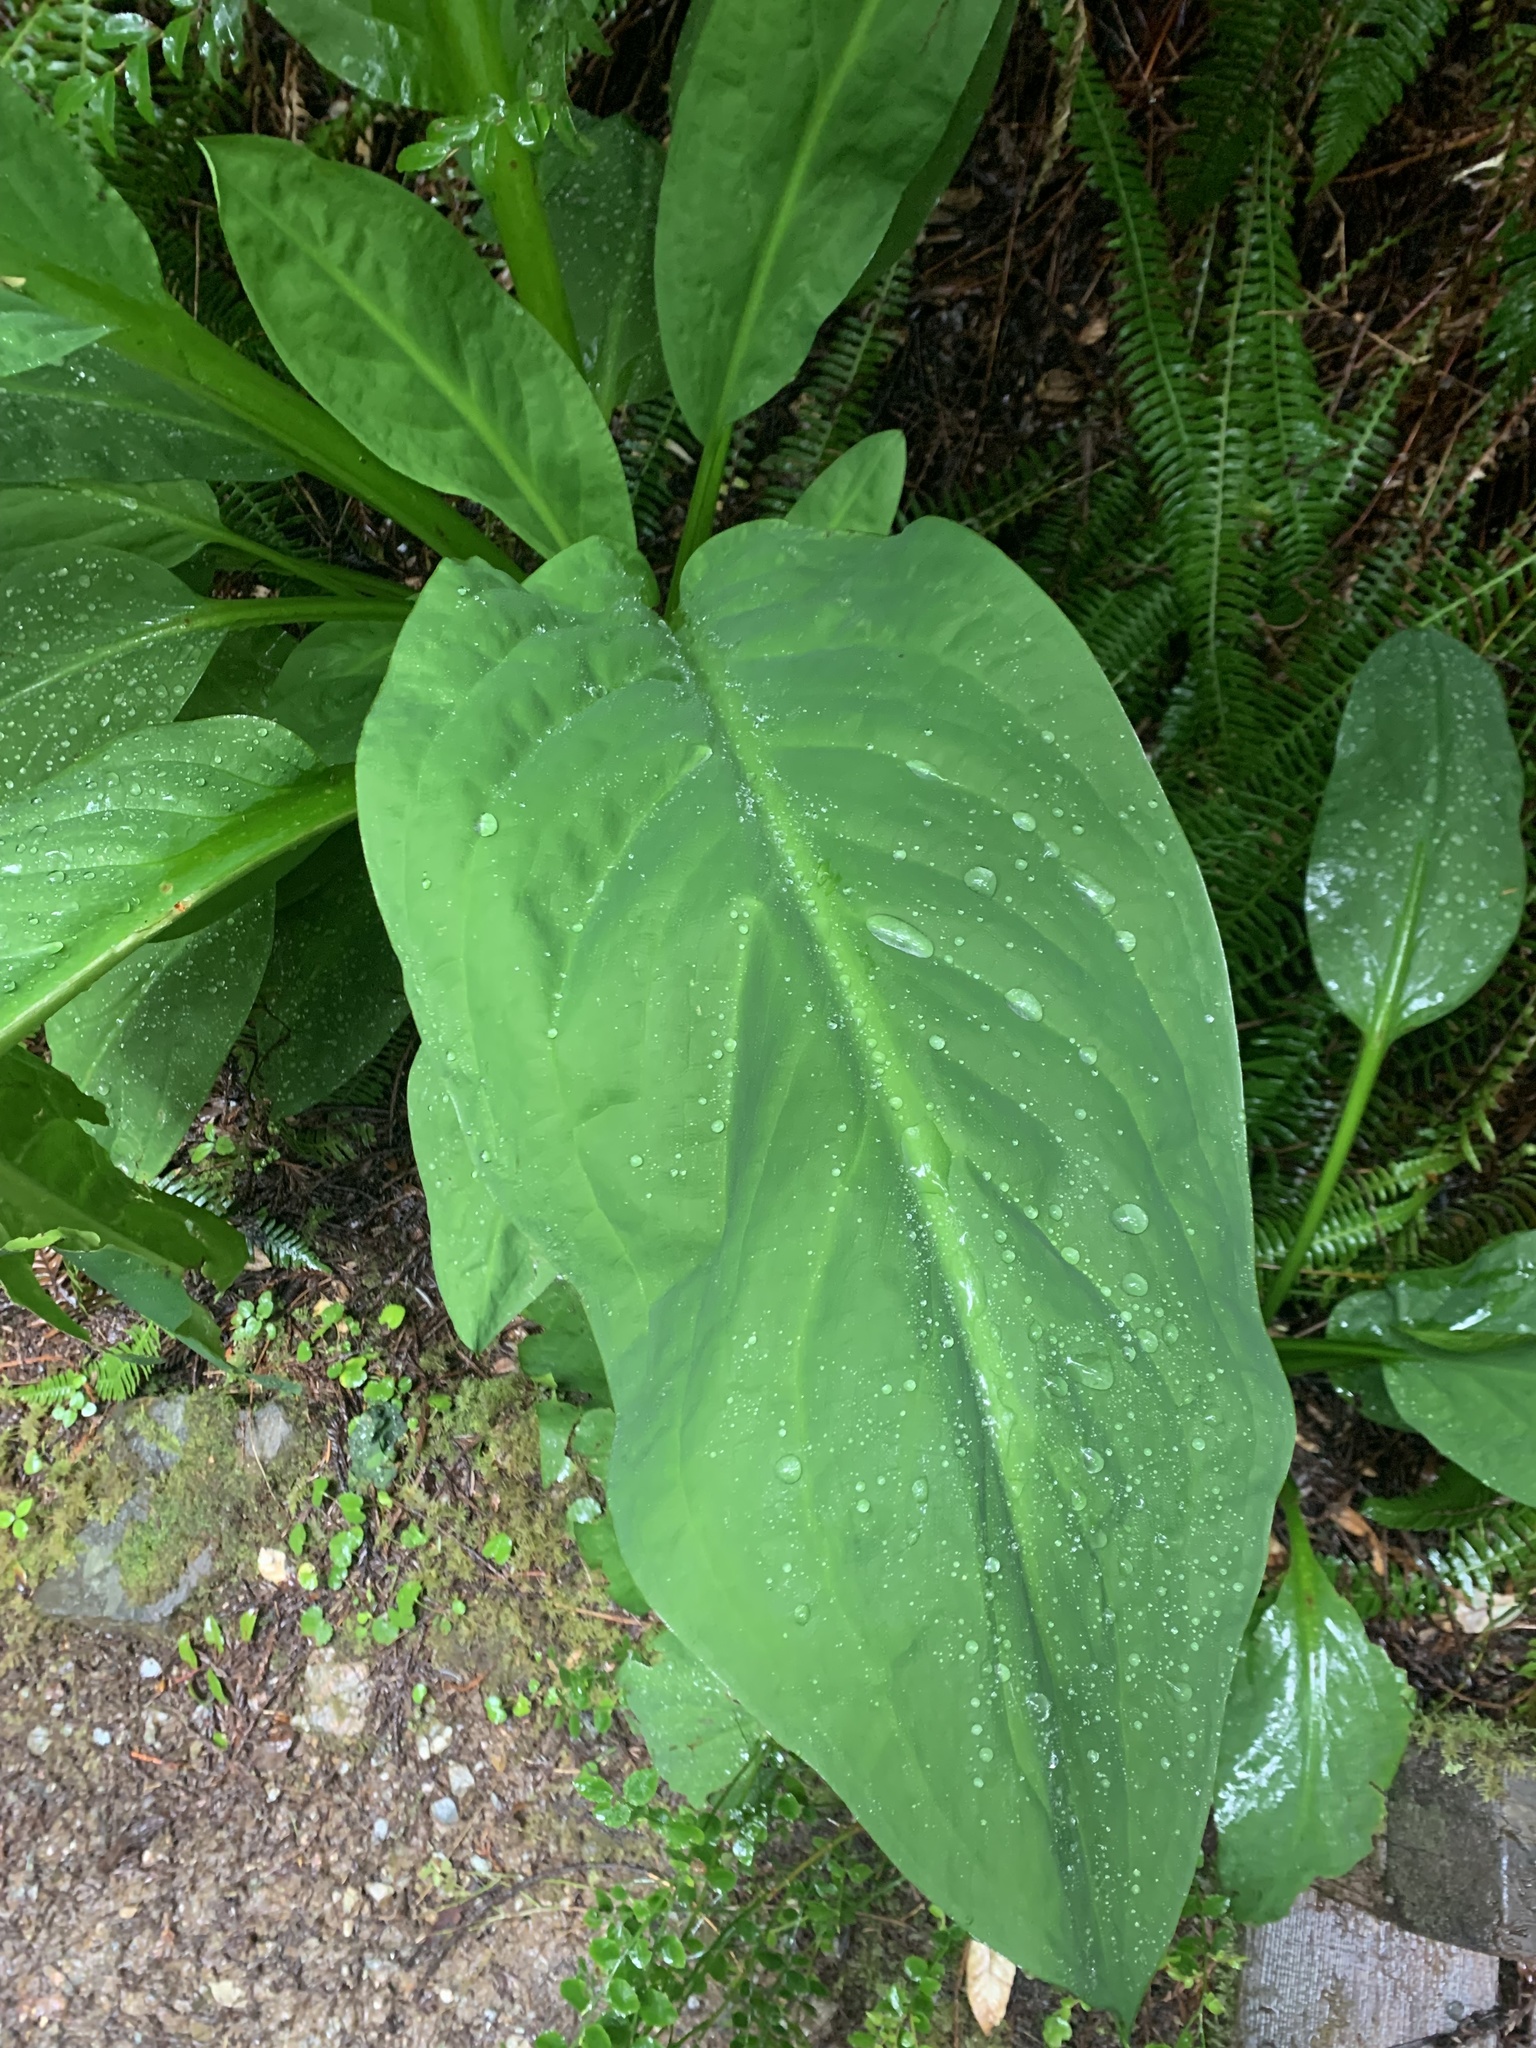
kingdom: Plantae
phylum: Tracheophyta
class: Liliopsida
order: Alismatales
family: Araceae
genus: Lysichiton
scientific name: Lysichiton americanus
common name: American skunk cabbage
